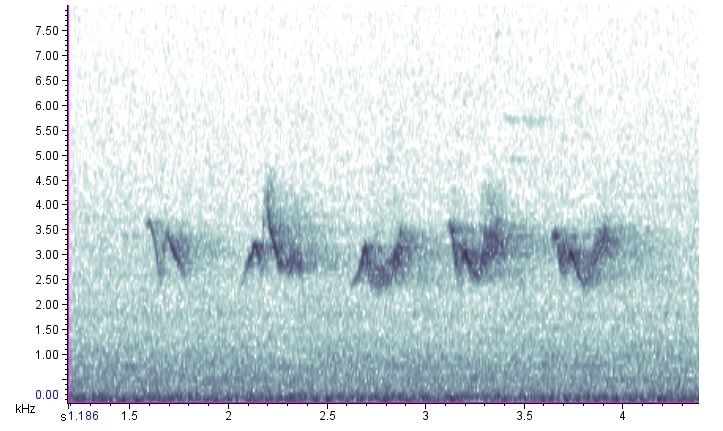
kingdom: Animalia
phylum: Chordata
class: Aves
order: Passeriformes
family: Cardinalidae
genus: Piranga
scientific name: Piranga olivacea
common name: Scarlet tanager
